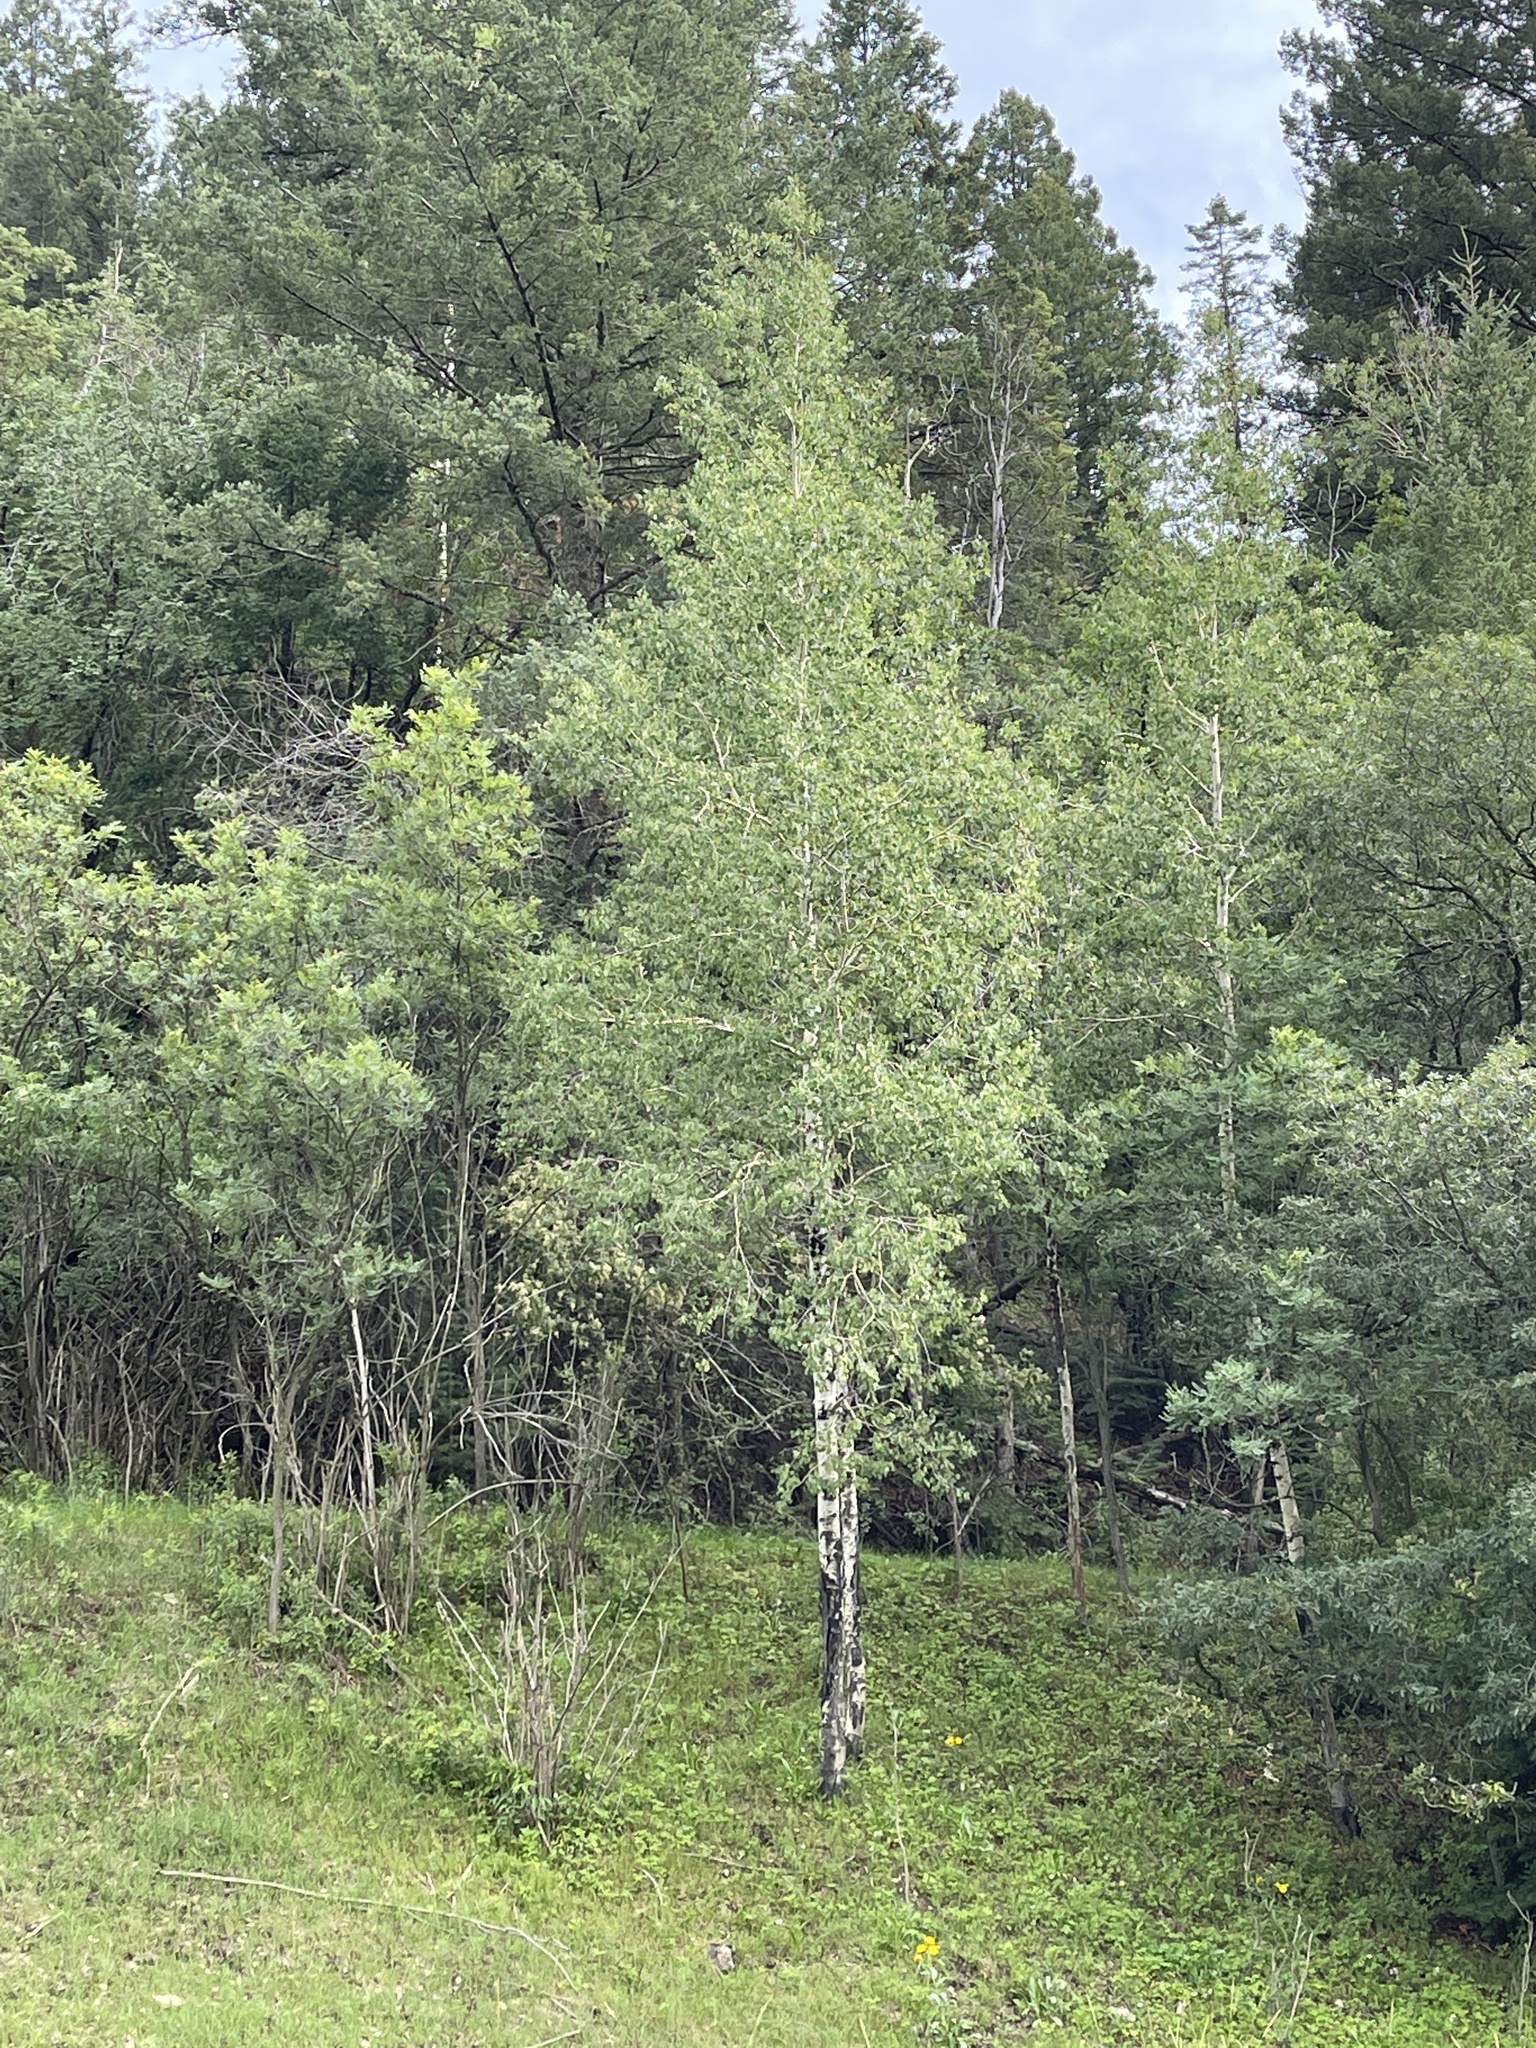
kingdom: Plantae
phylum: Tracheophyta
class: Magnoliopsida
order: Malpighiales
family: Salicaceae
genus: Populus
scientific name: Populus tremuloides
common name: Quaking aspen
